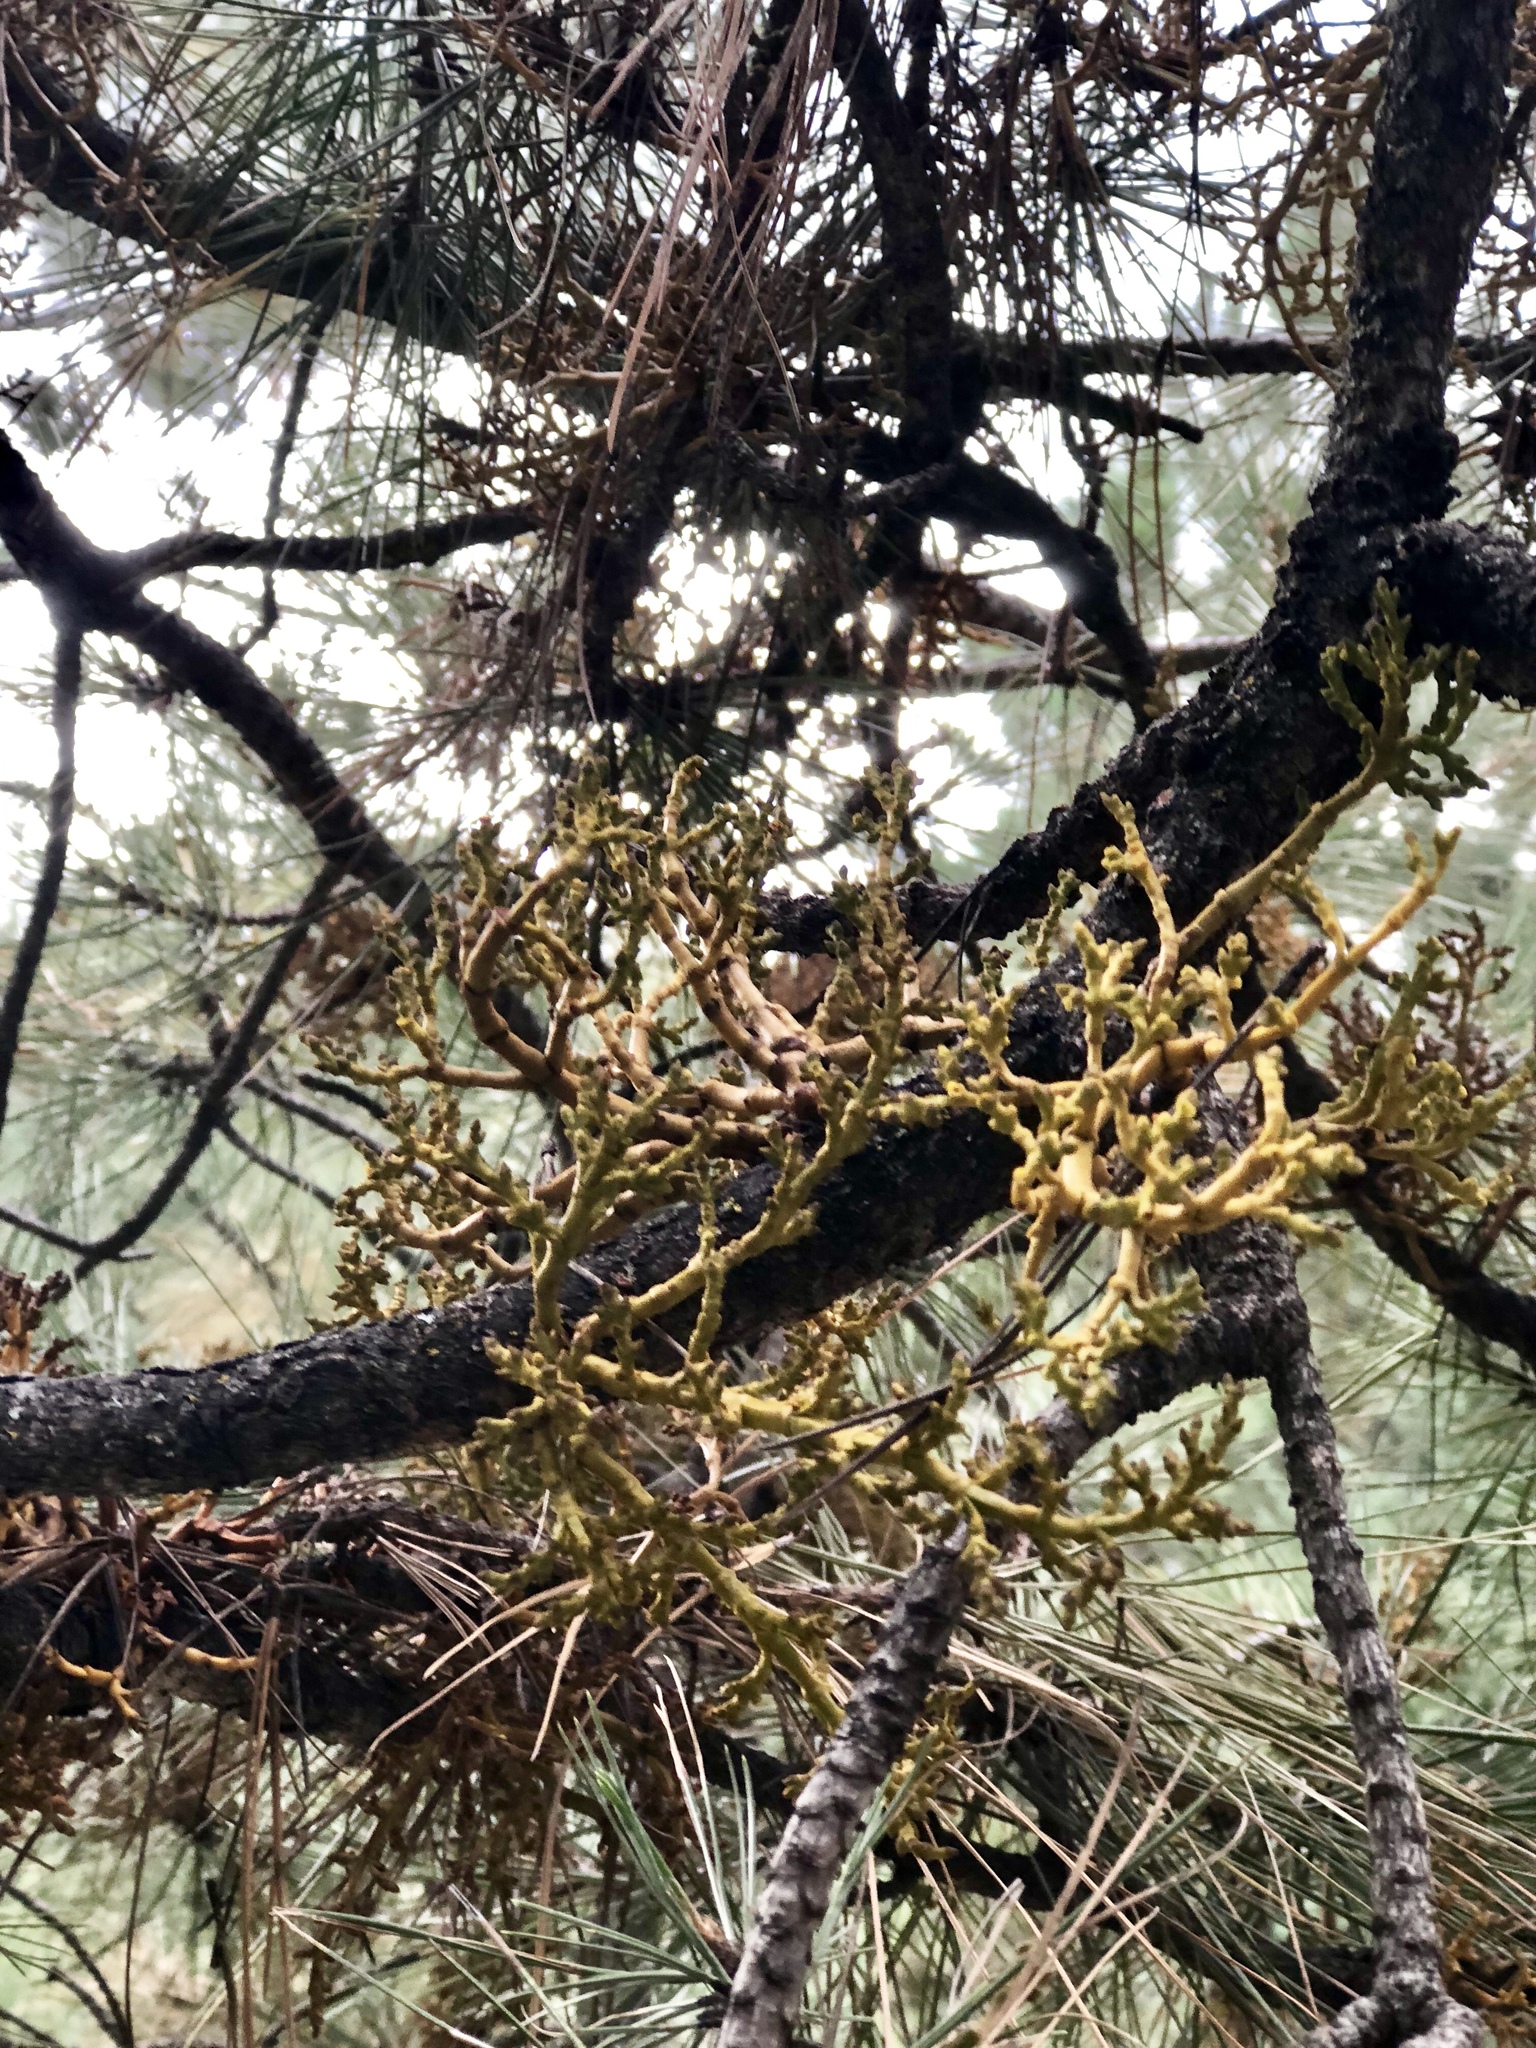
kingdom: Plantae
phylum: Tracheophyta
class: Magnoliopsida
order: Santalales
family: Viscaceae
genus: Arceuthobium
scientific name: Arceuthobium vaginatum
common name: Southwestern dwarf-mistletoe
